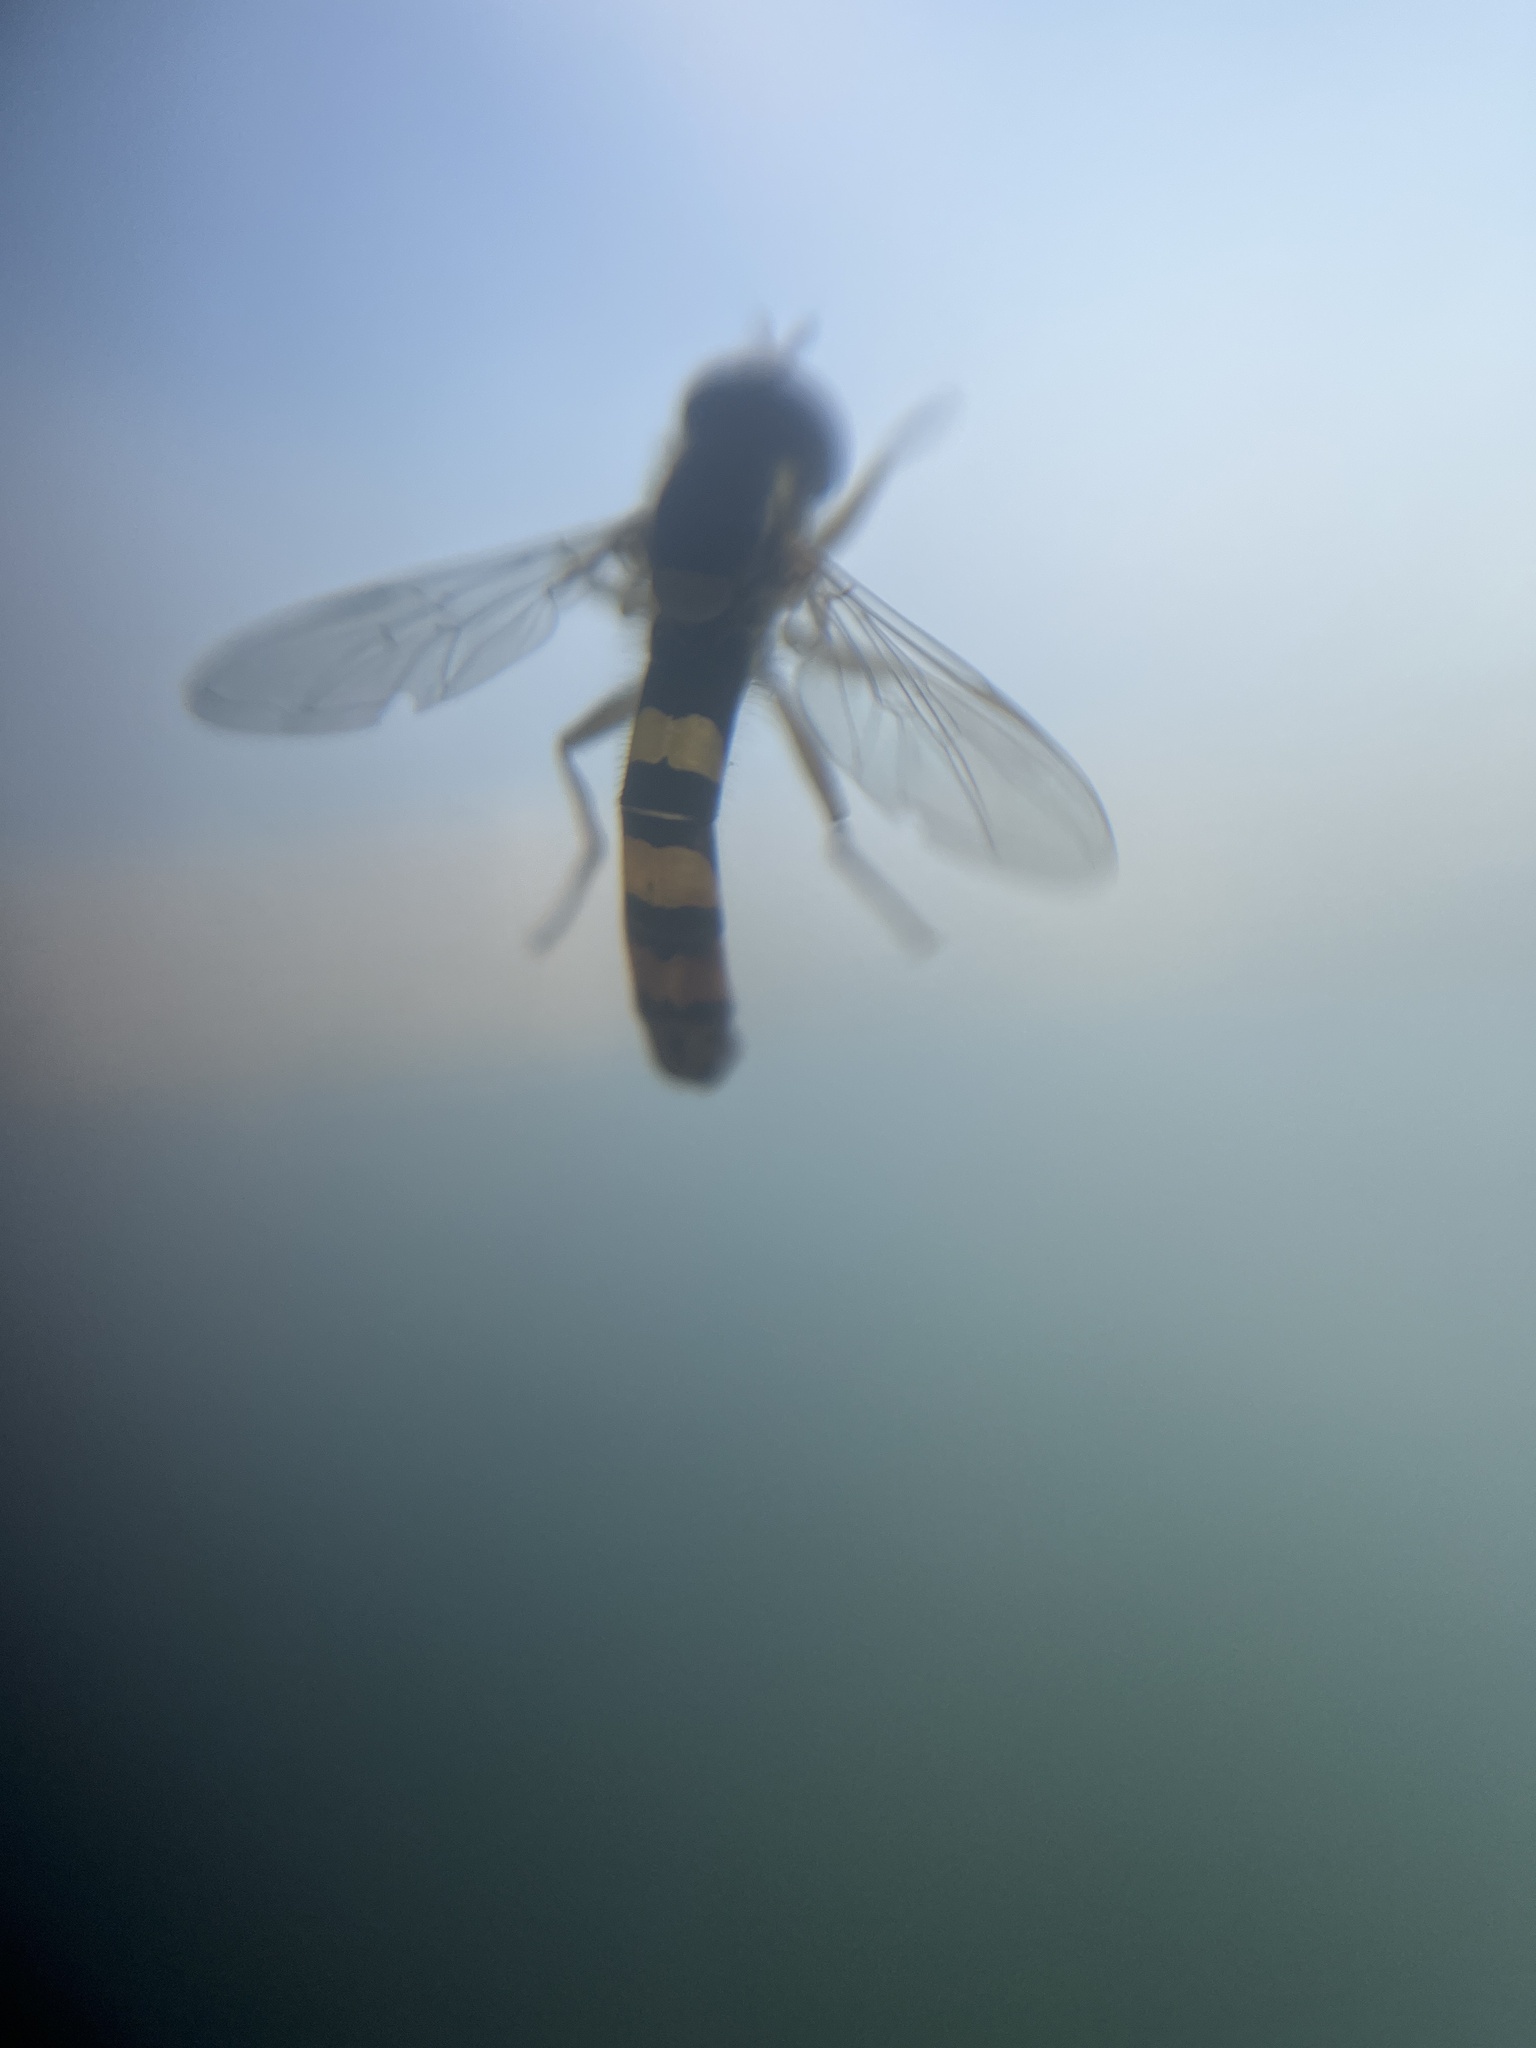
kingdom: Animalia
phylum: Arthropoda
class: Insecta
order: Diptera
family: Syrphidae
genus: Sphaerophoria
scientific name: Sphaerophoria scripta
